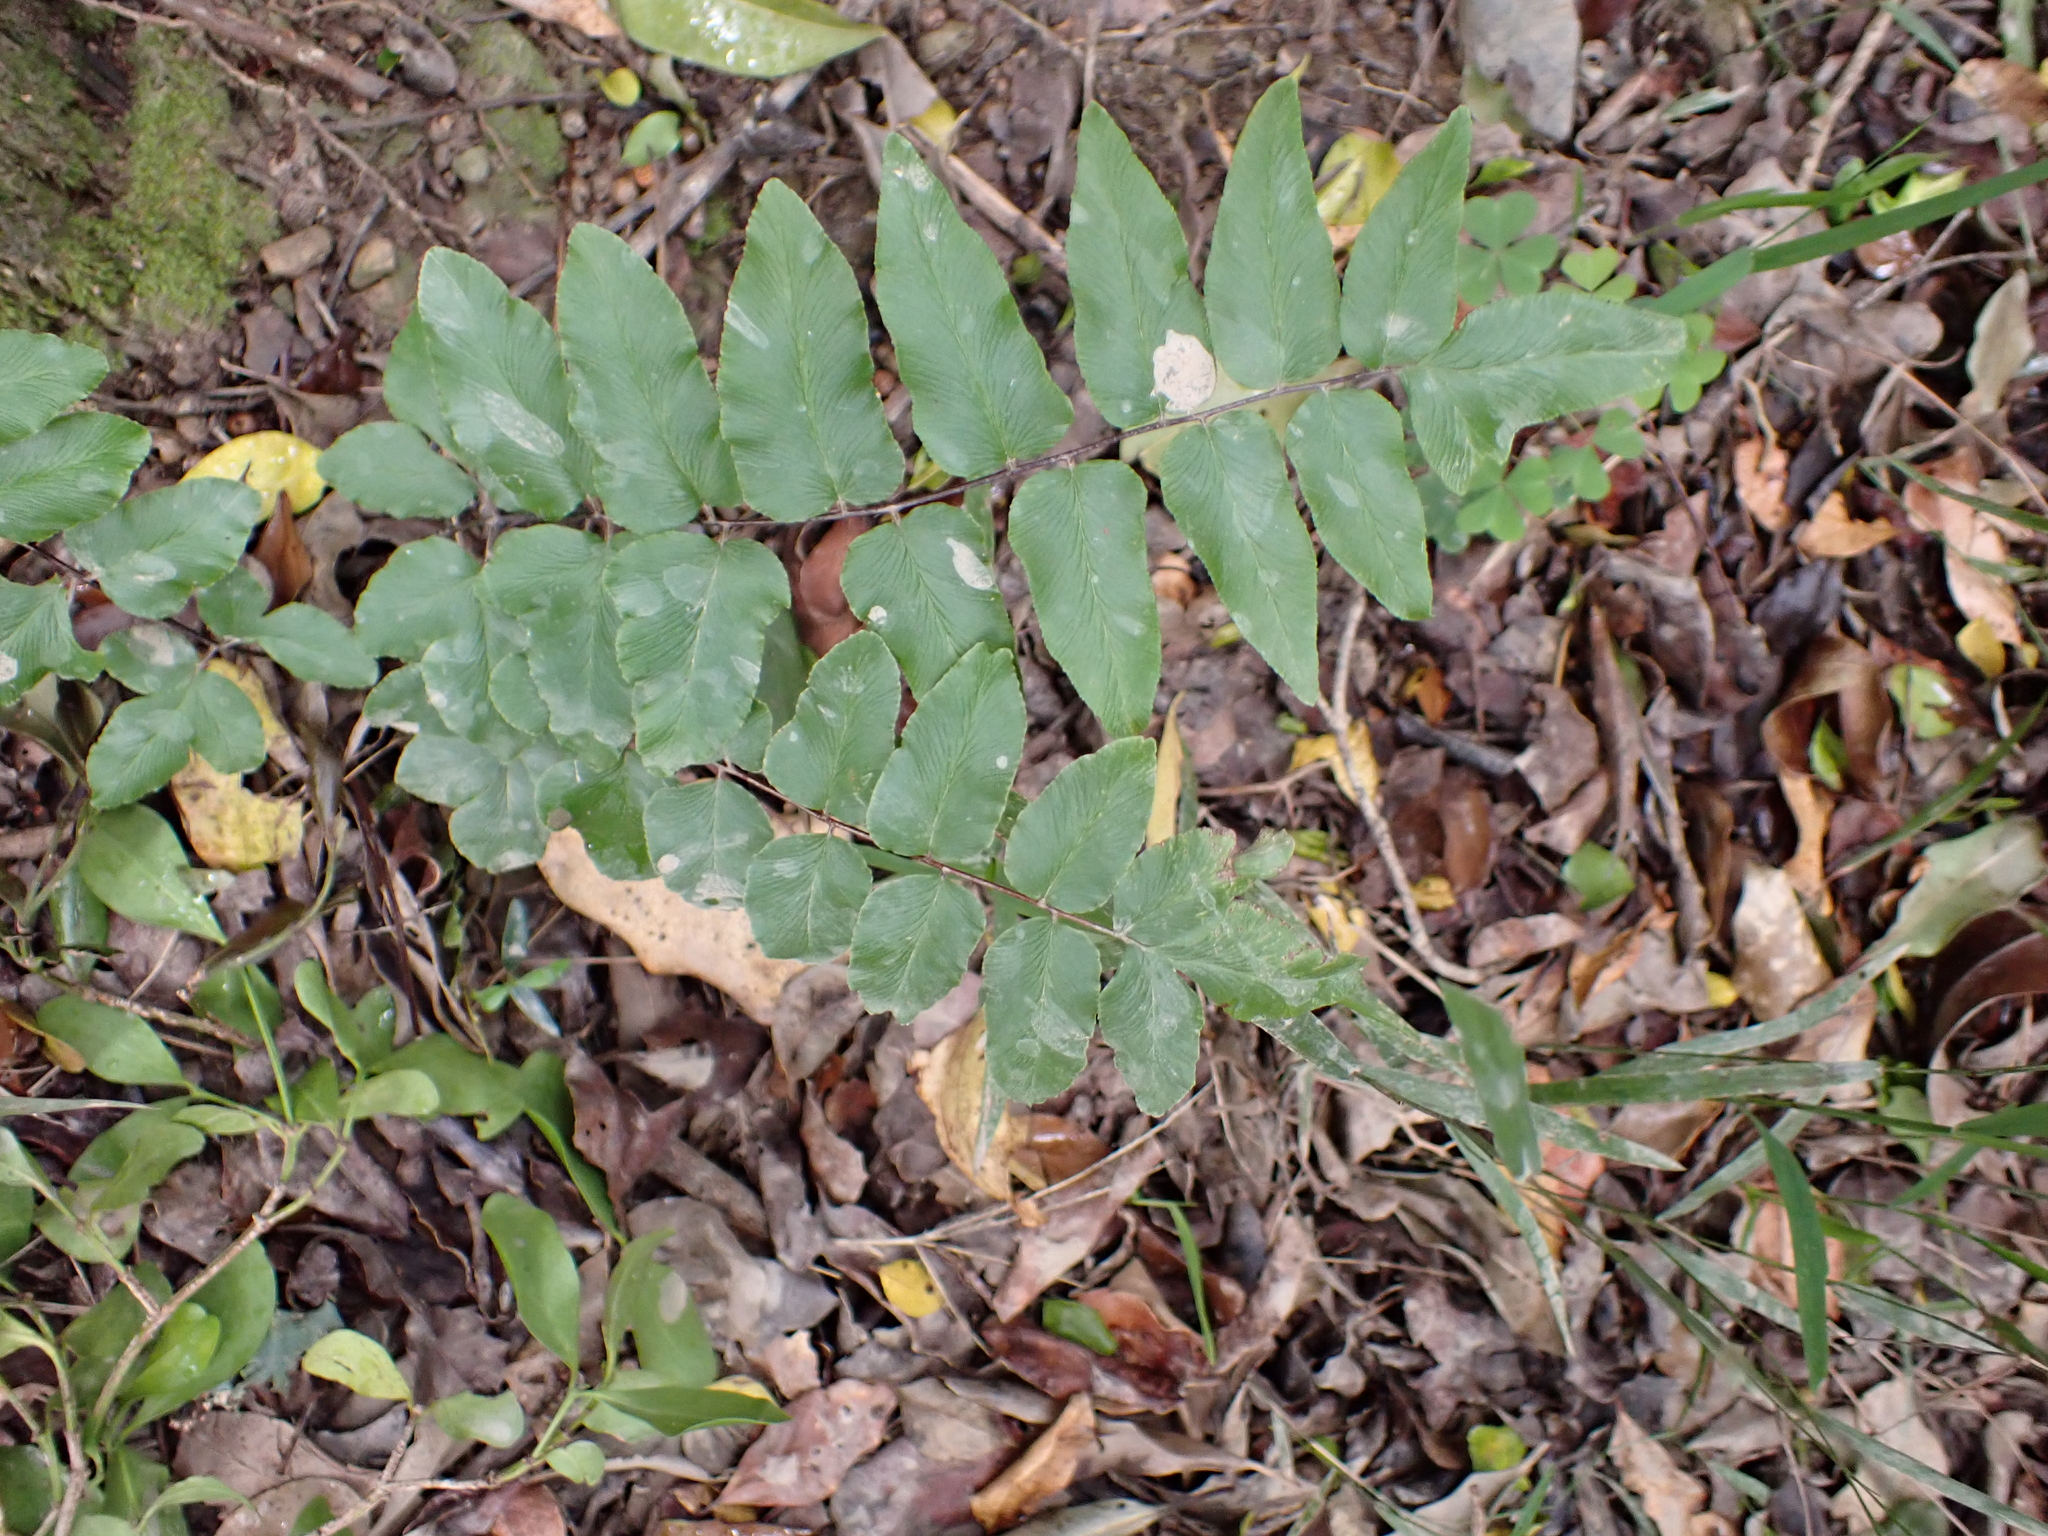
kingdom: Plantae
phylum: Tracheophyta
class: Polypodiopsida
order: Polypodiales
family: Pteridaceae
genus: Cheilanthes
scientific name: Cheilanthes viridis
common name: Green cliffbrake
